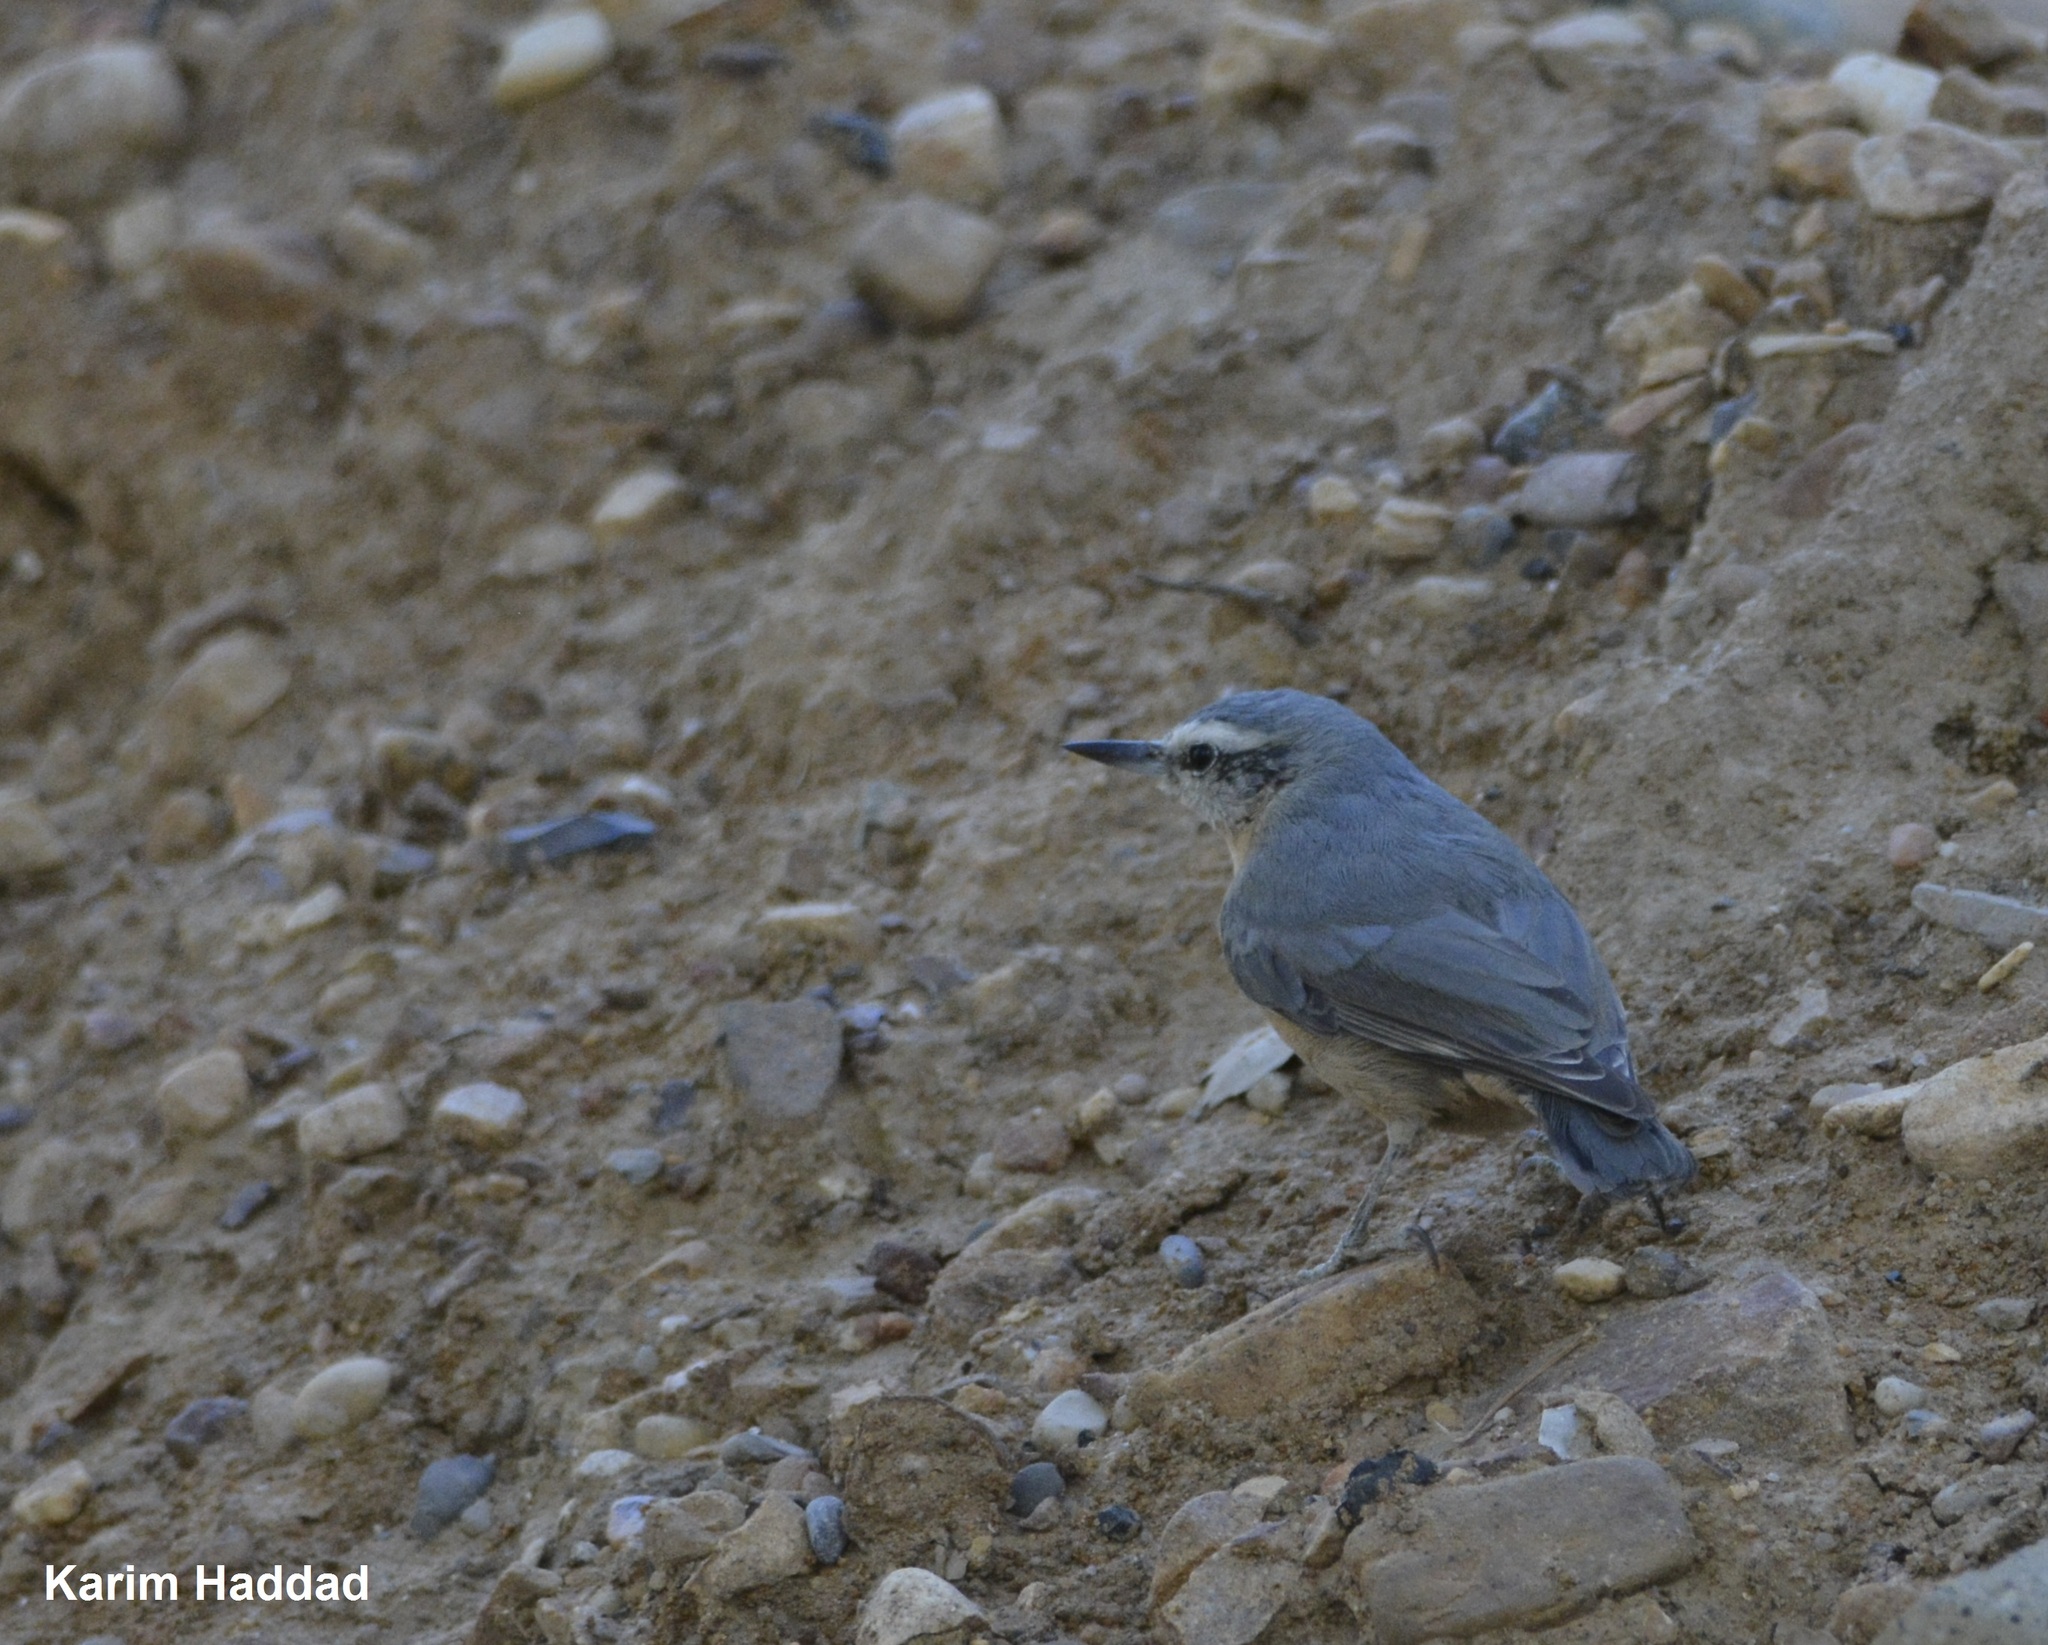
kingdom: Animalia
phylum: Chordata
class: Aves
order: Passeriformes
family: Sittidae
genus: Sitta
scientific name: Sitta ledanti
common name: Algerian nuthatch
